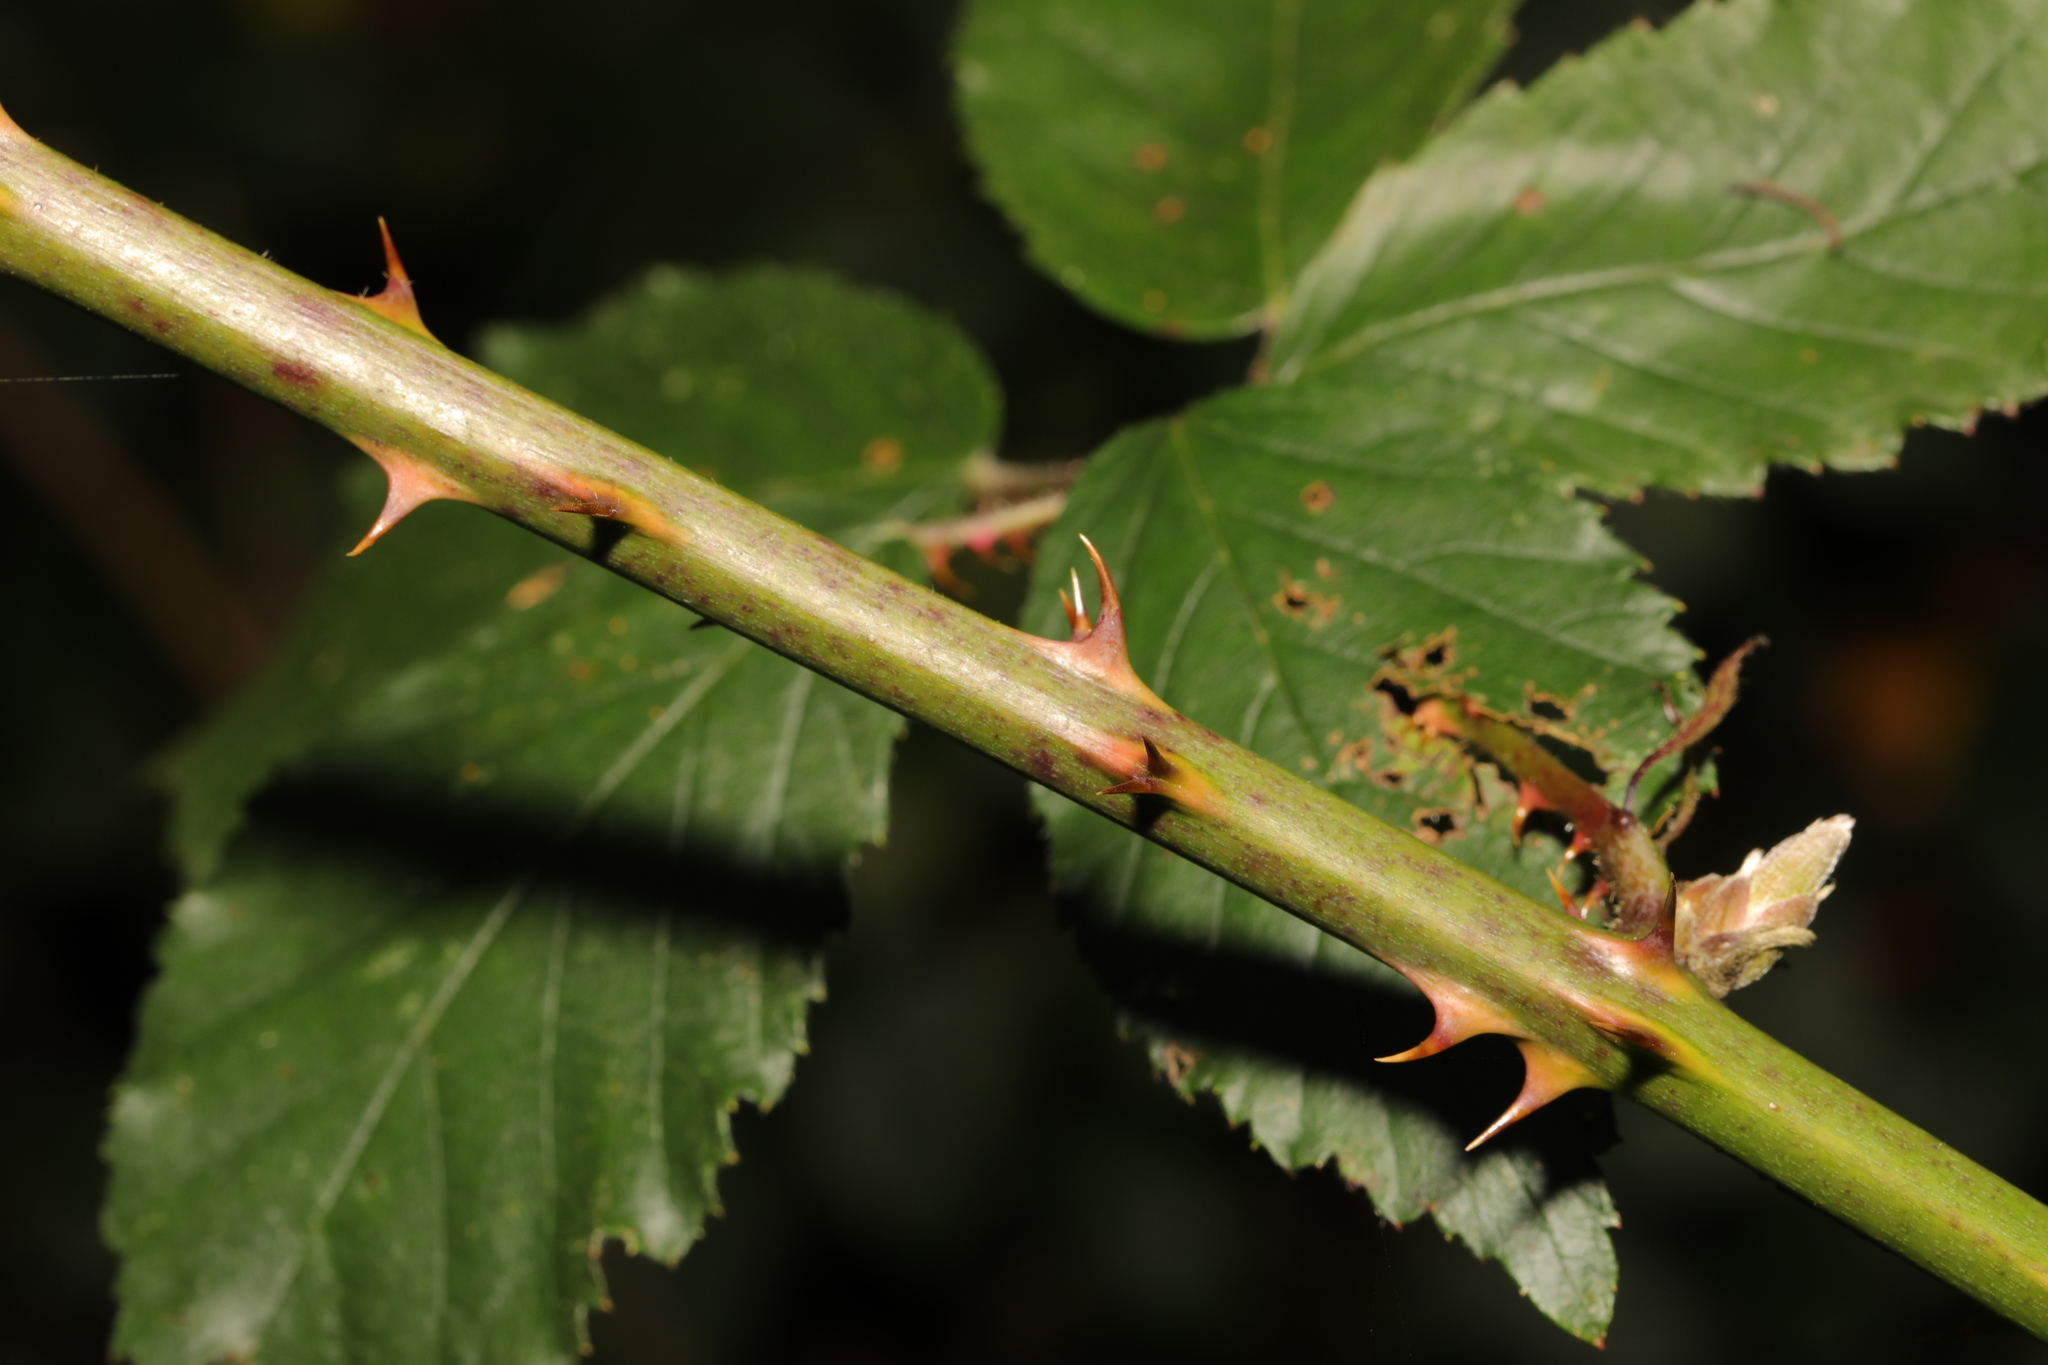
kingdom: Plantae
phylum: Tracheophyta
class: Magnoliopsida
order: Rosales
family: Rosaceae
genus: Rubus
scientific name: Rubus lindleyanus
